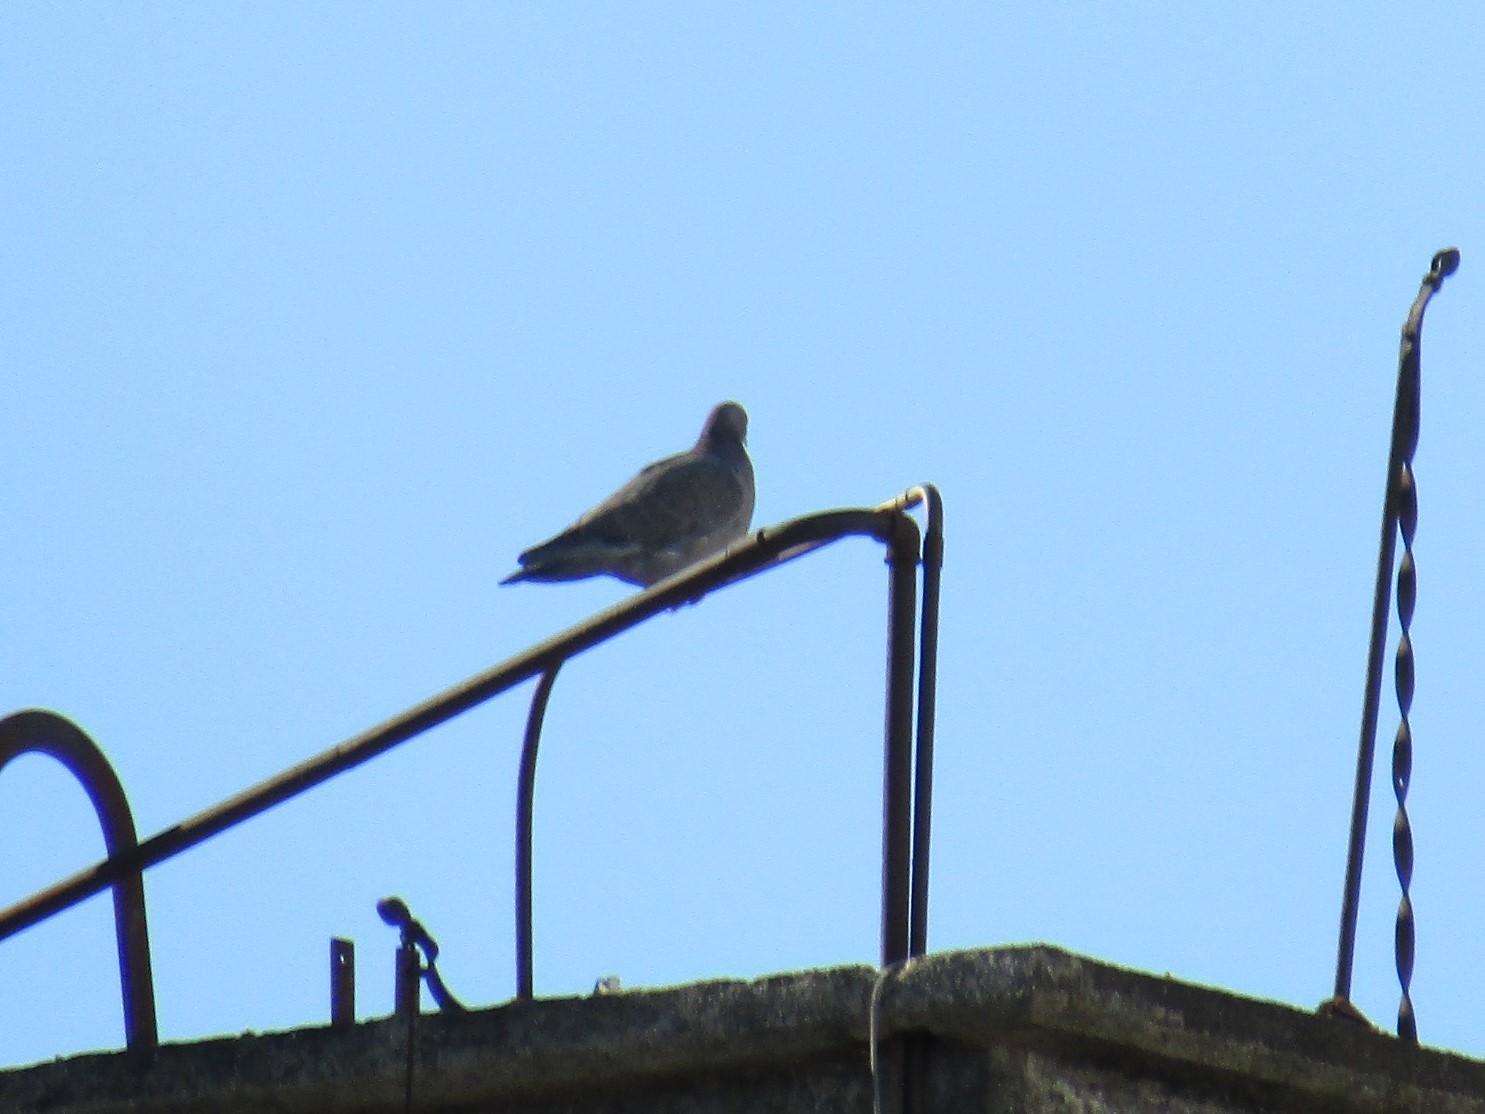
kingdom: Animalia
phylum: Chordata
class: Aves
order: Columbiformes
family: Columbidae
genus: Patagioenas
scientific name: Patagioenas picazuro
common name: Picazuro pigeon
